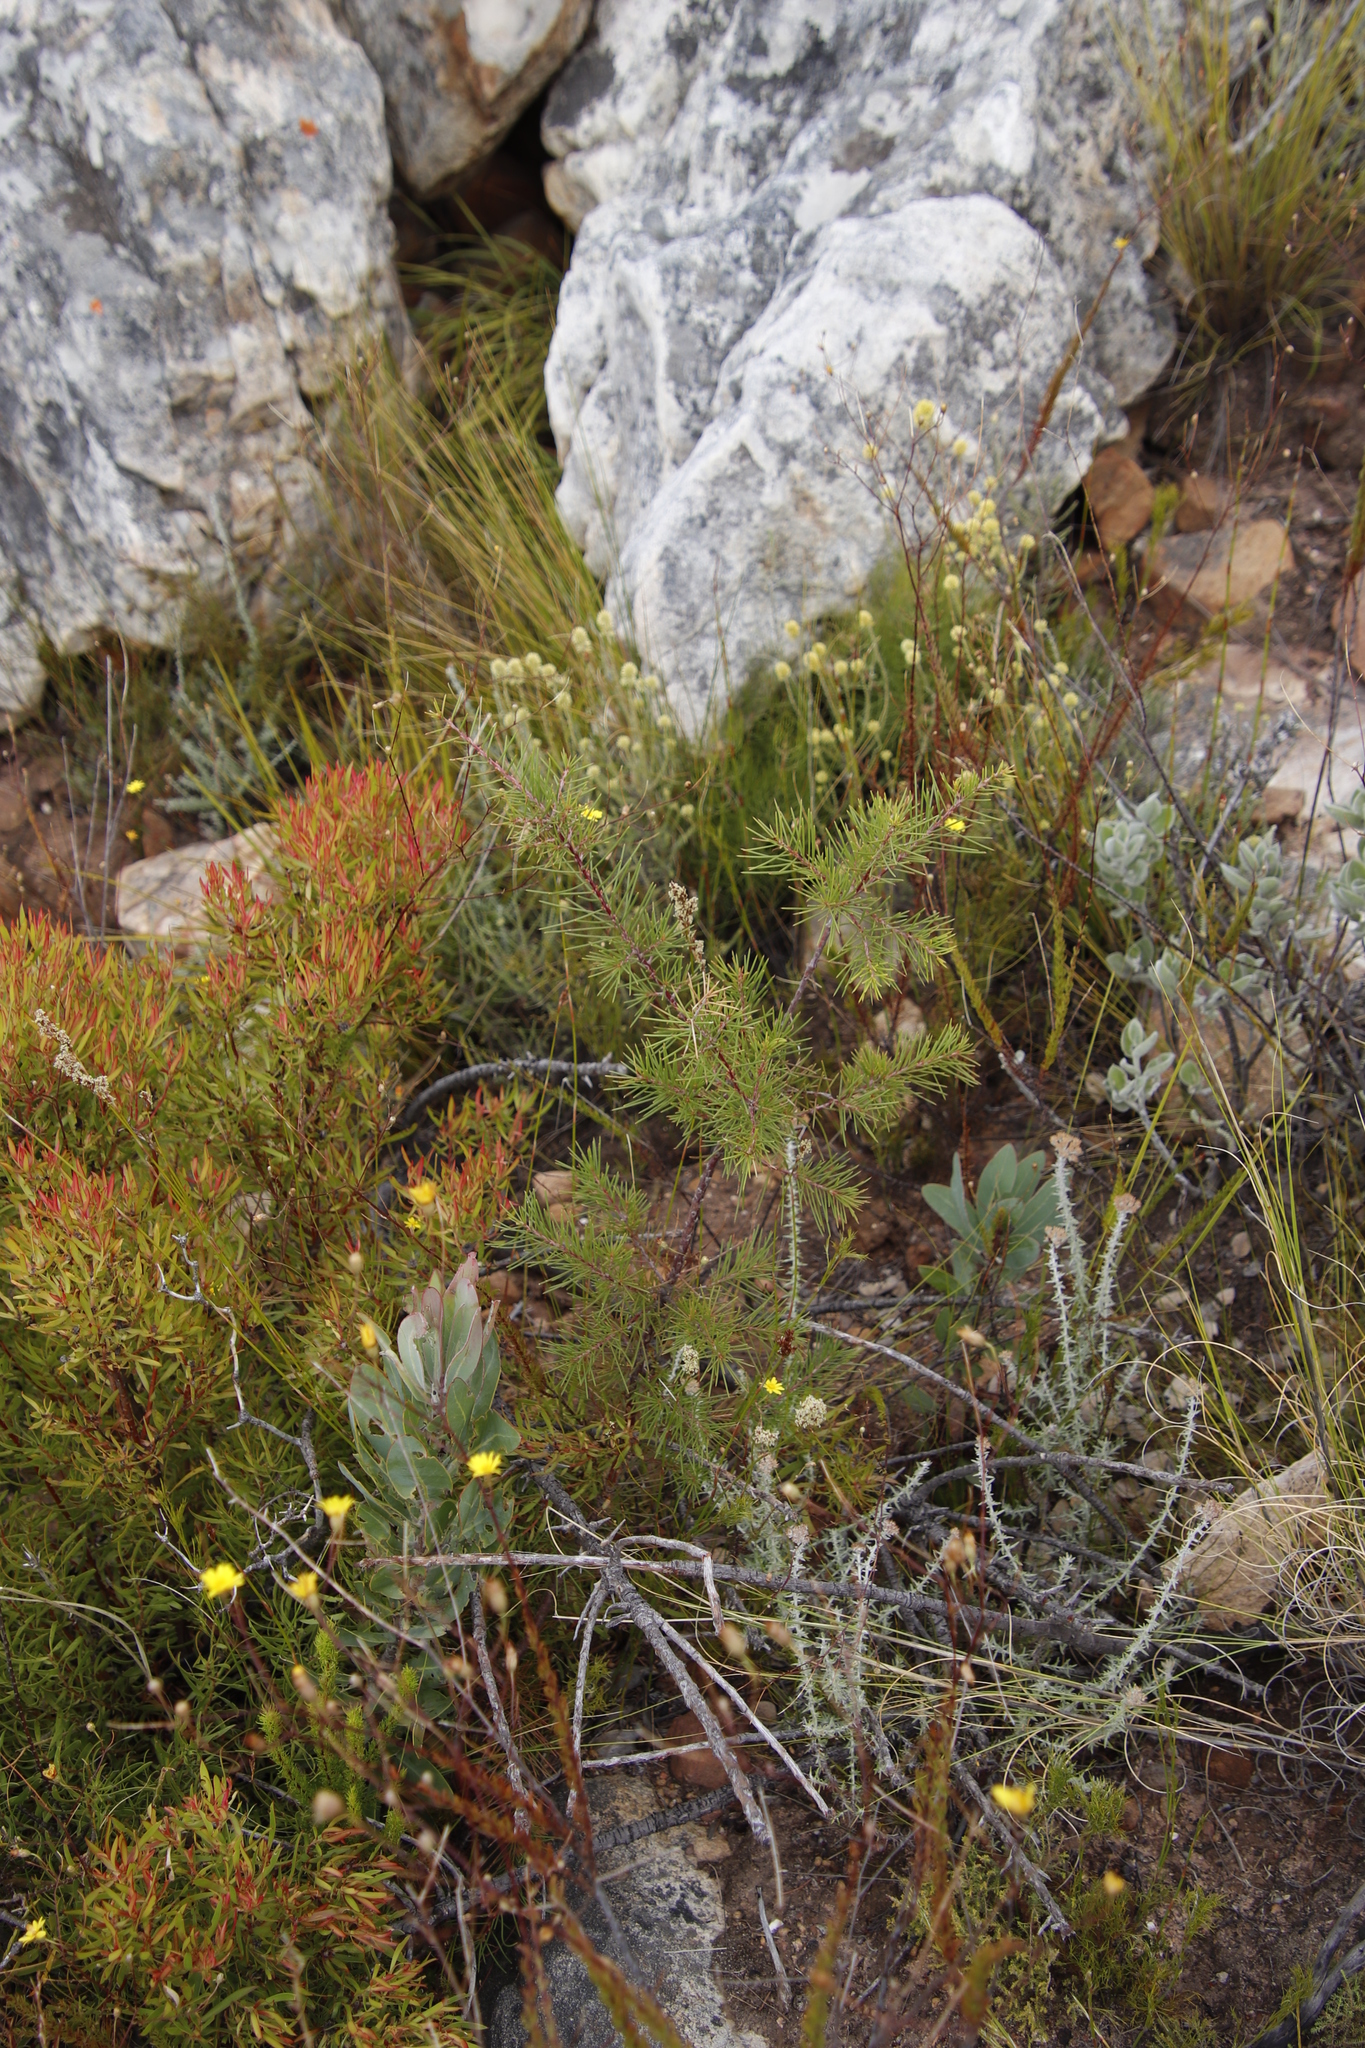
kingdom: Plantae
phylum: Tracheophyta
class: Magnoliopsida
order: Proteales
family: Proteaceae
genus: Hakea
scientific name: Hakea sericea
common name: Needle bush
